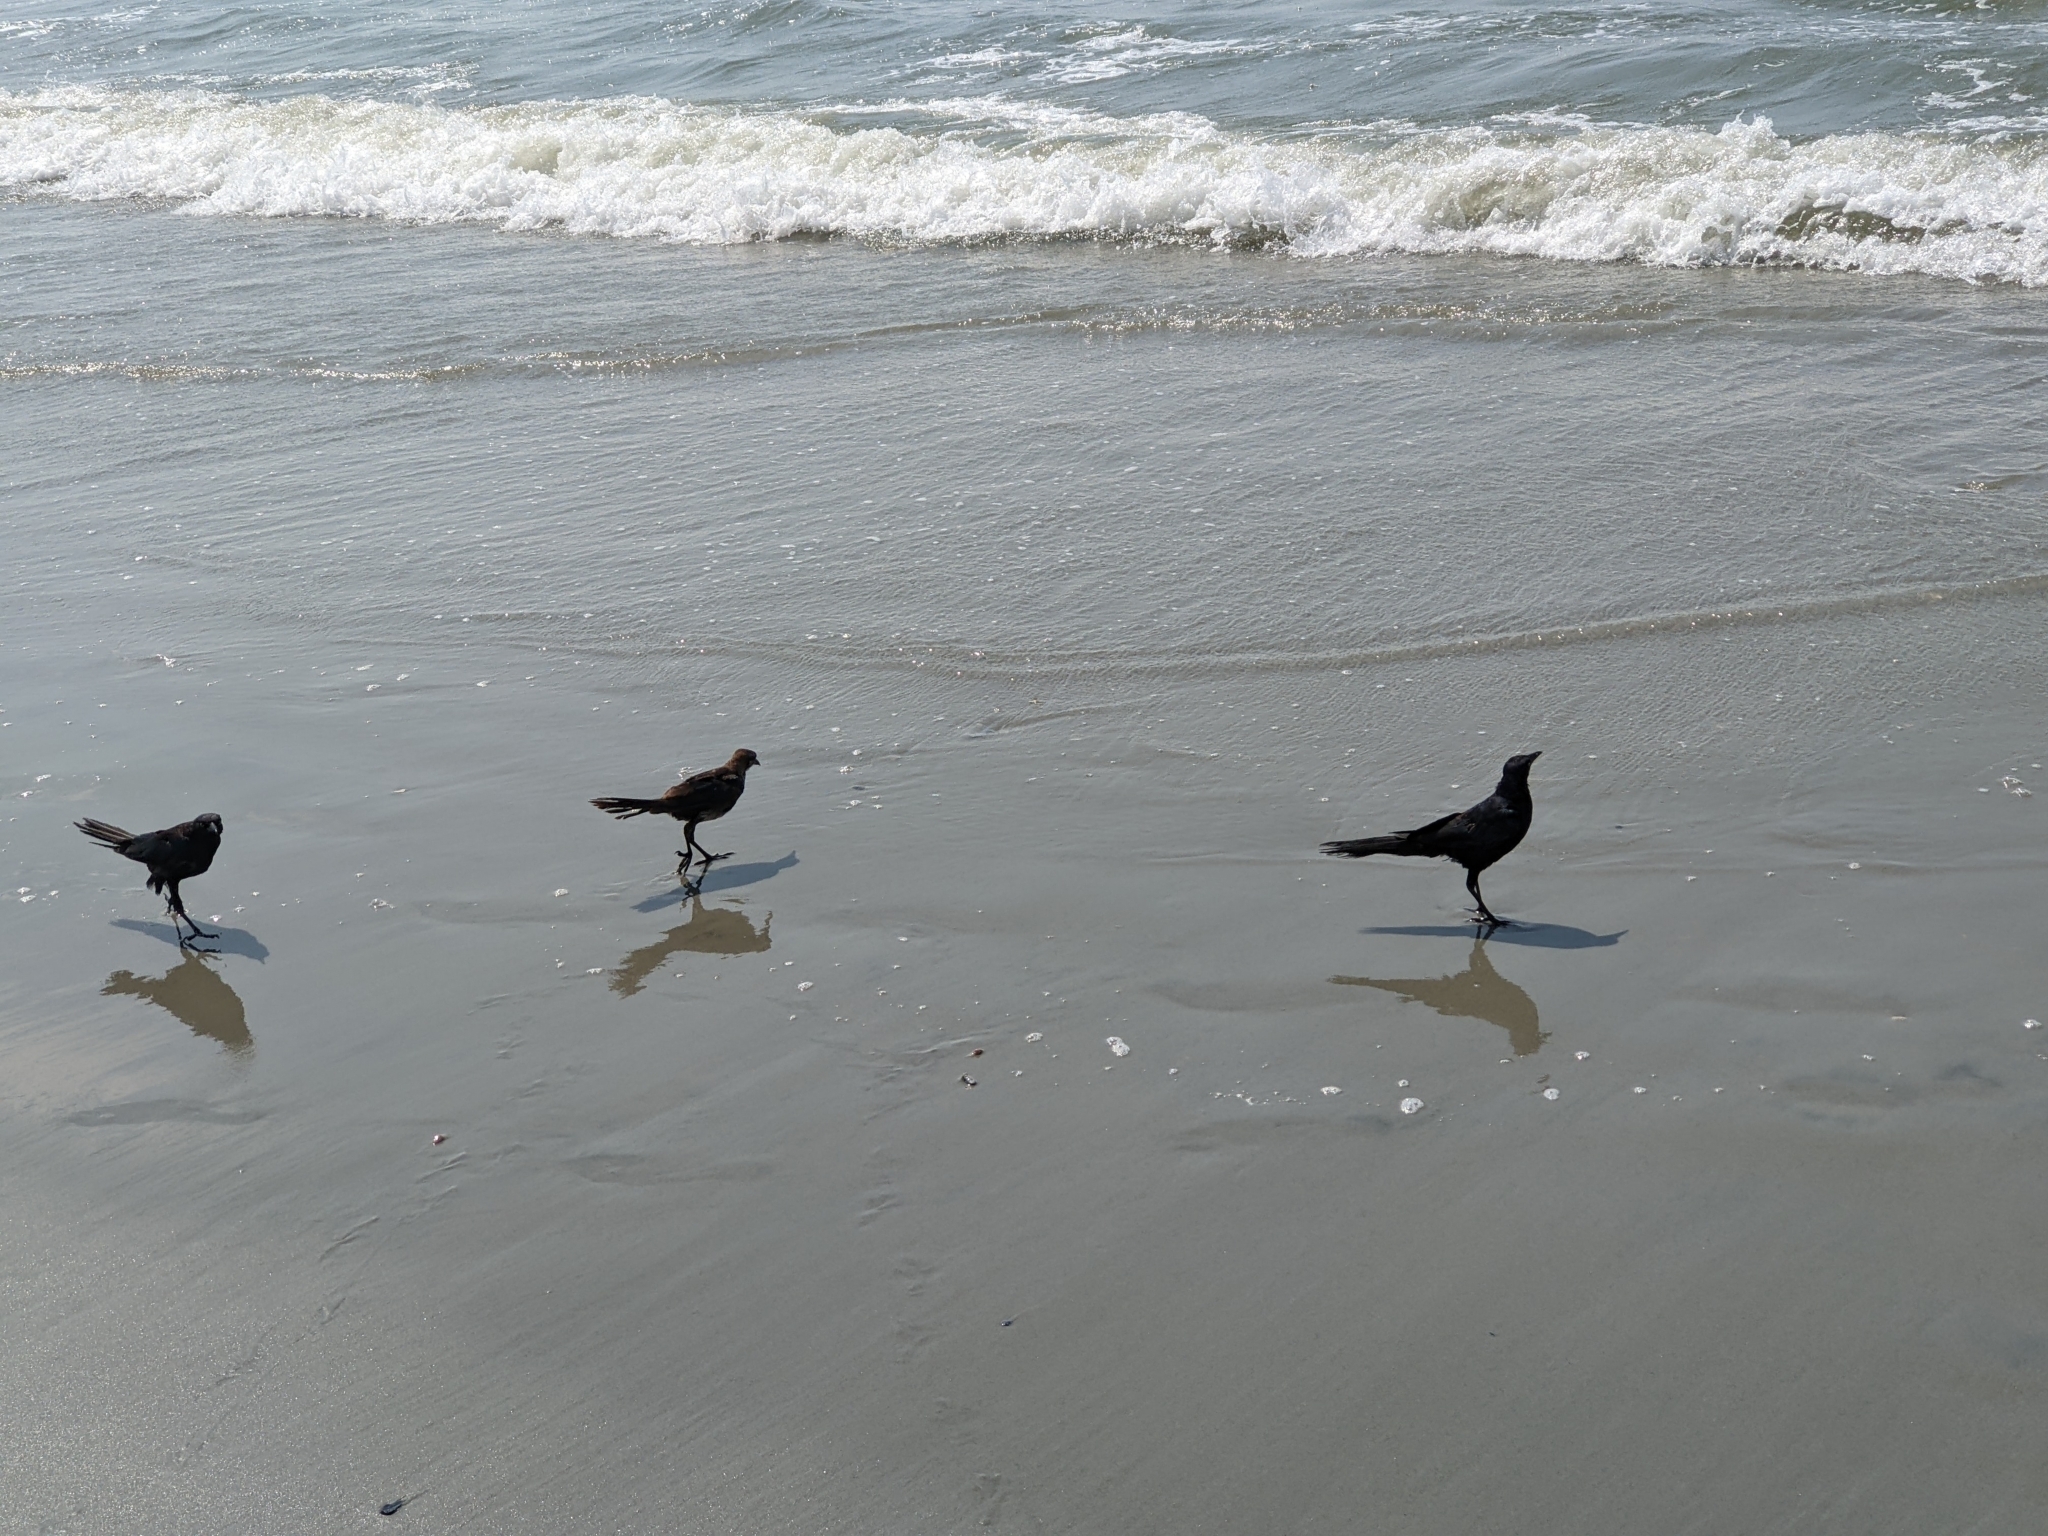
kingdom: Animalia
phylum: Chordata
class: Aves
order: Passeriformes
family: Icteridae
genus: Quiscalus
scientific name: Quiscalus major
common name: Boat-tailed grackle
